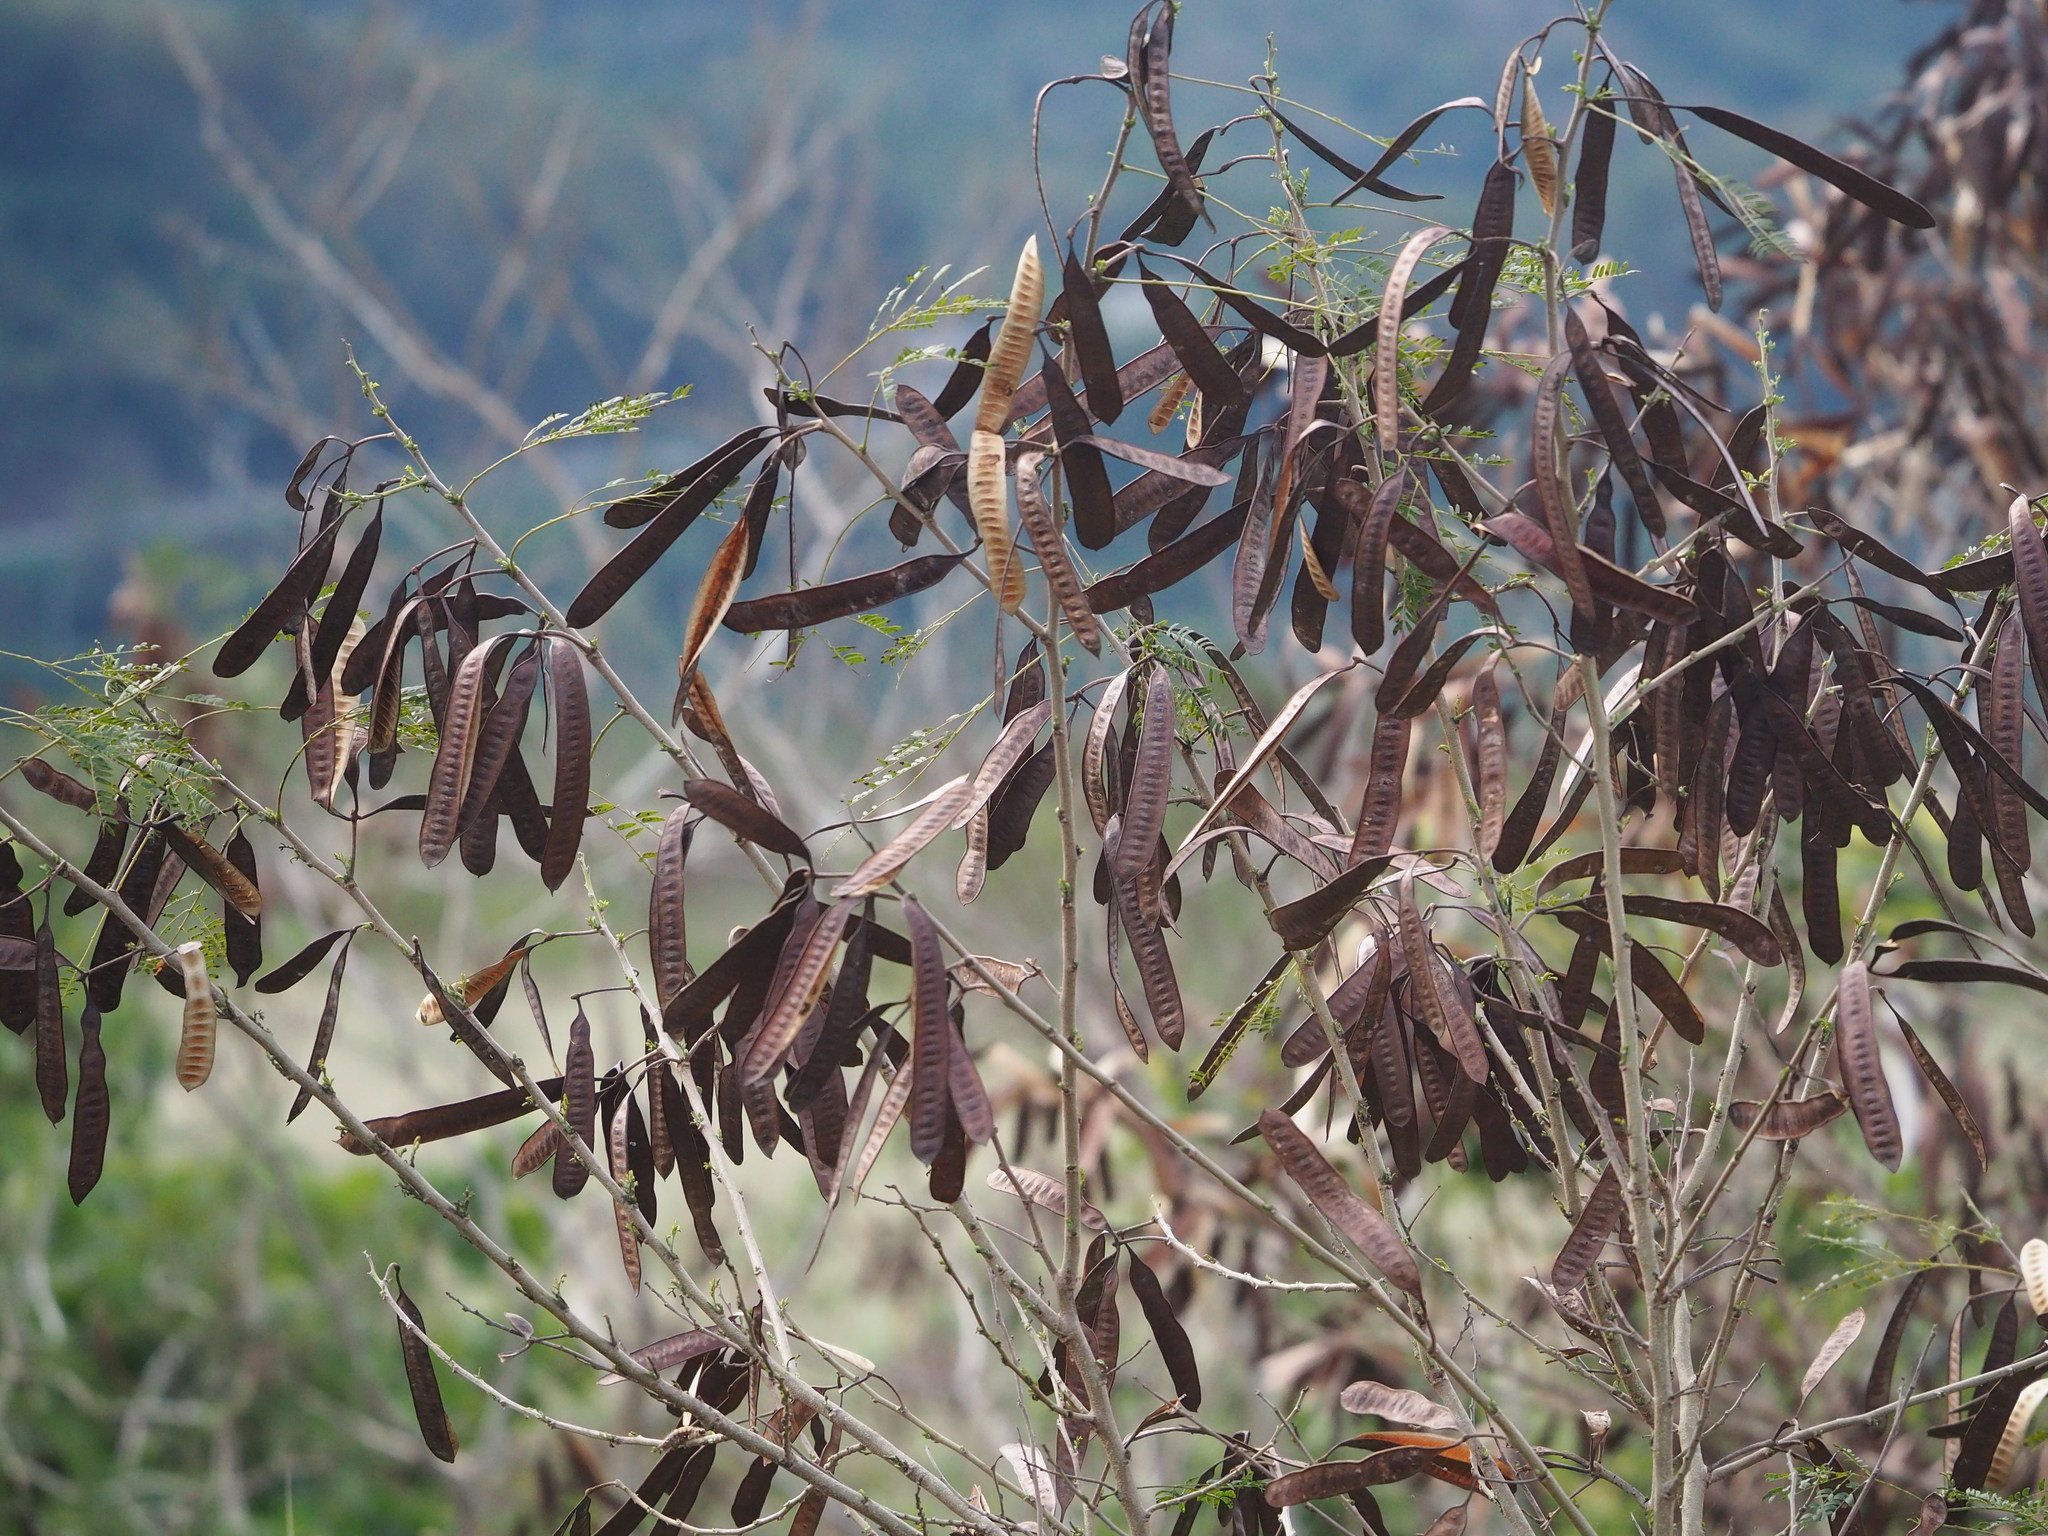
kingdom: Plantae
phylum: Tracheophyta
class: Magnoliopsida
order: Fabales
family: Fabaceae
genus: Leucaena
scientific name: Leucaena leucocephala
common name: White leadtree
